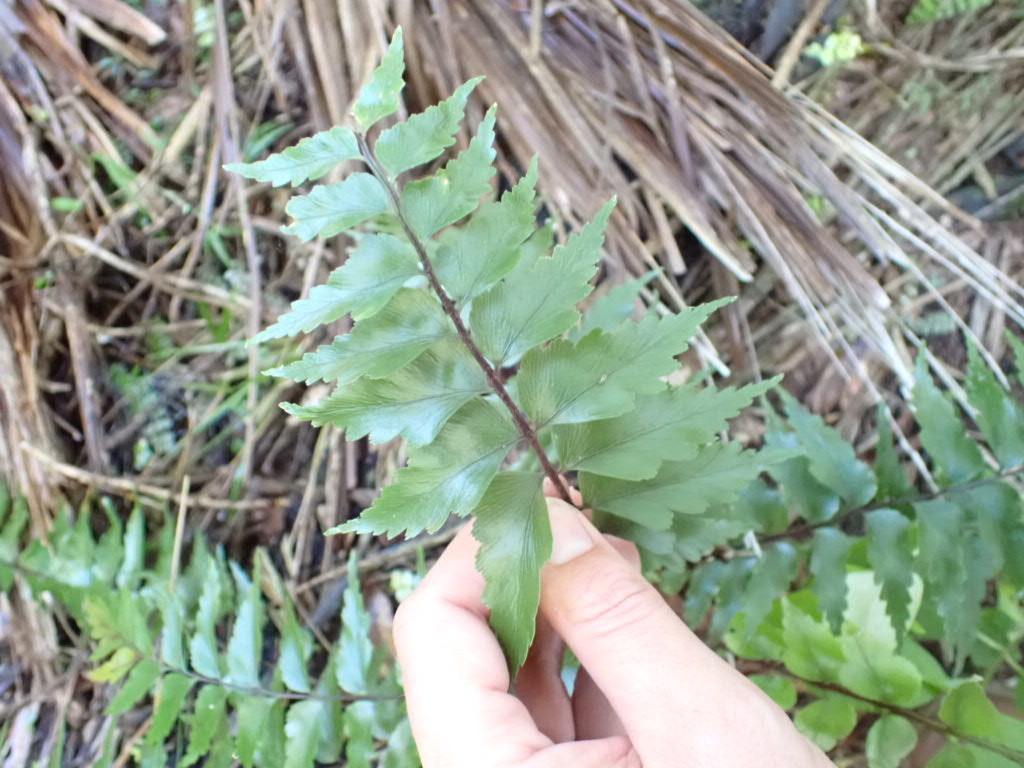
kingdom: Plantae
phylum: Tracheophyta
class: Polypodiopsida
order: Polypodiales
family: Aspleniaceae
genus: Asplenium
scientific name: Asplenium polyodon
